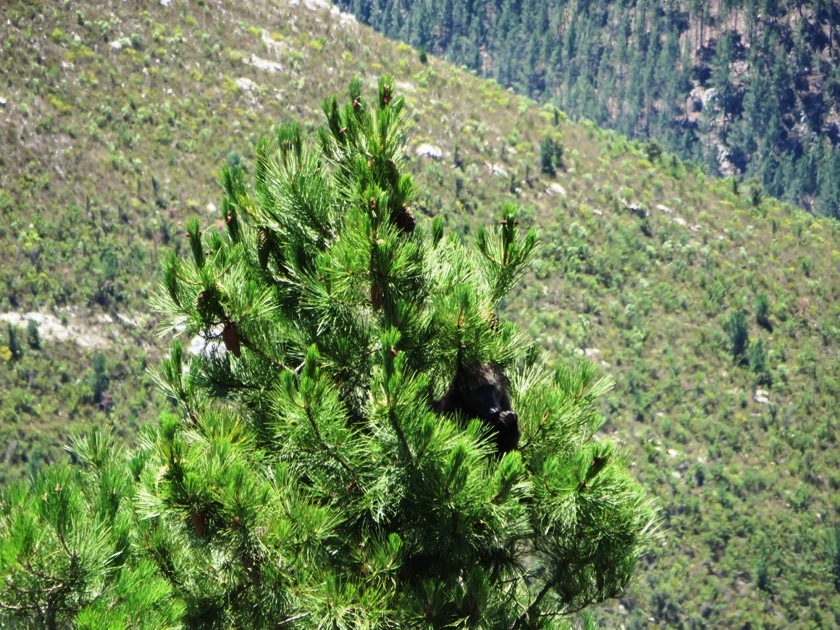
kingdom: Animalia
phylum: Chordata
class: Mammalia
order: Primates
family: Cercopithecidae
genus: Papio
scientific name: Papio ursinus
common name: Chacma baboon
